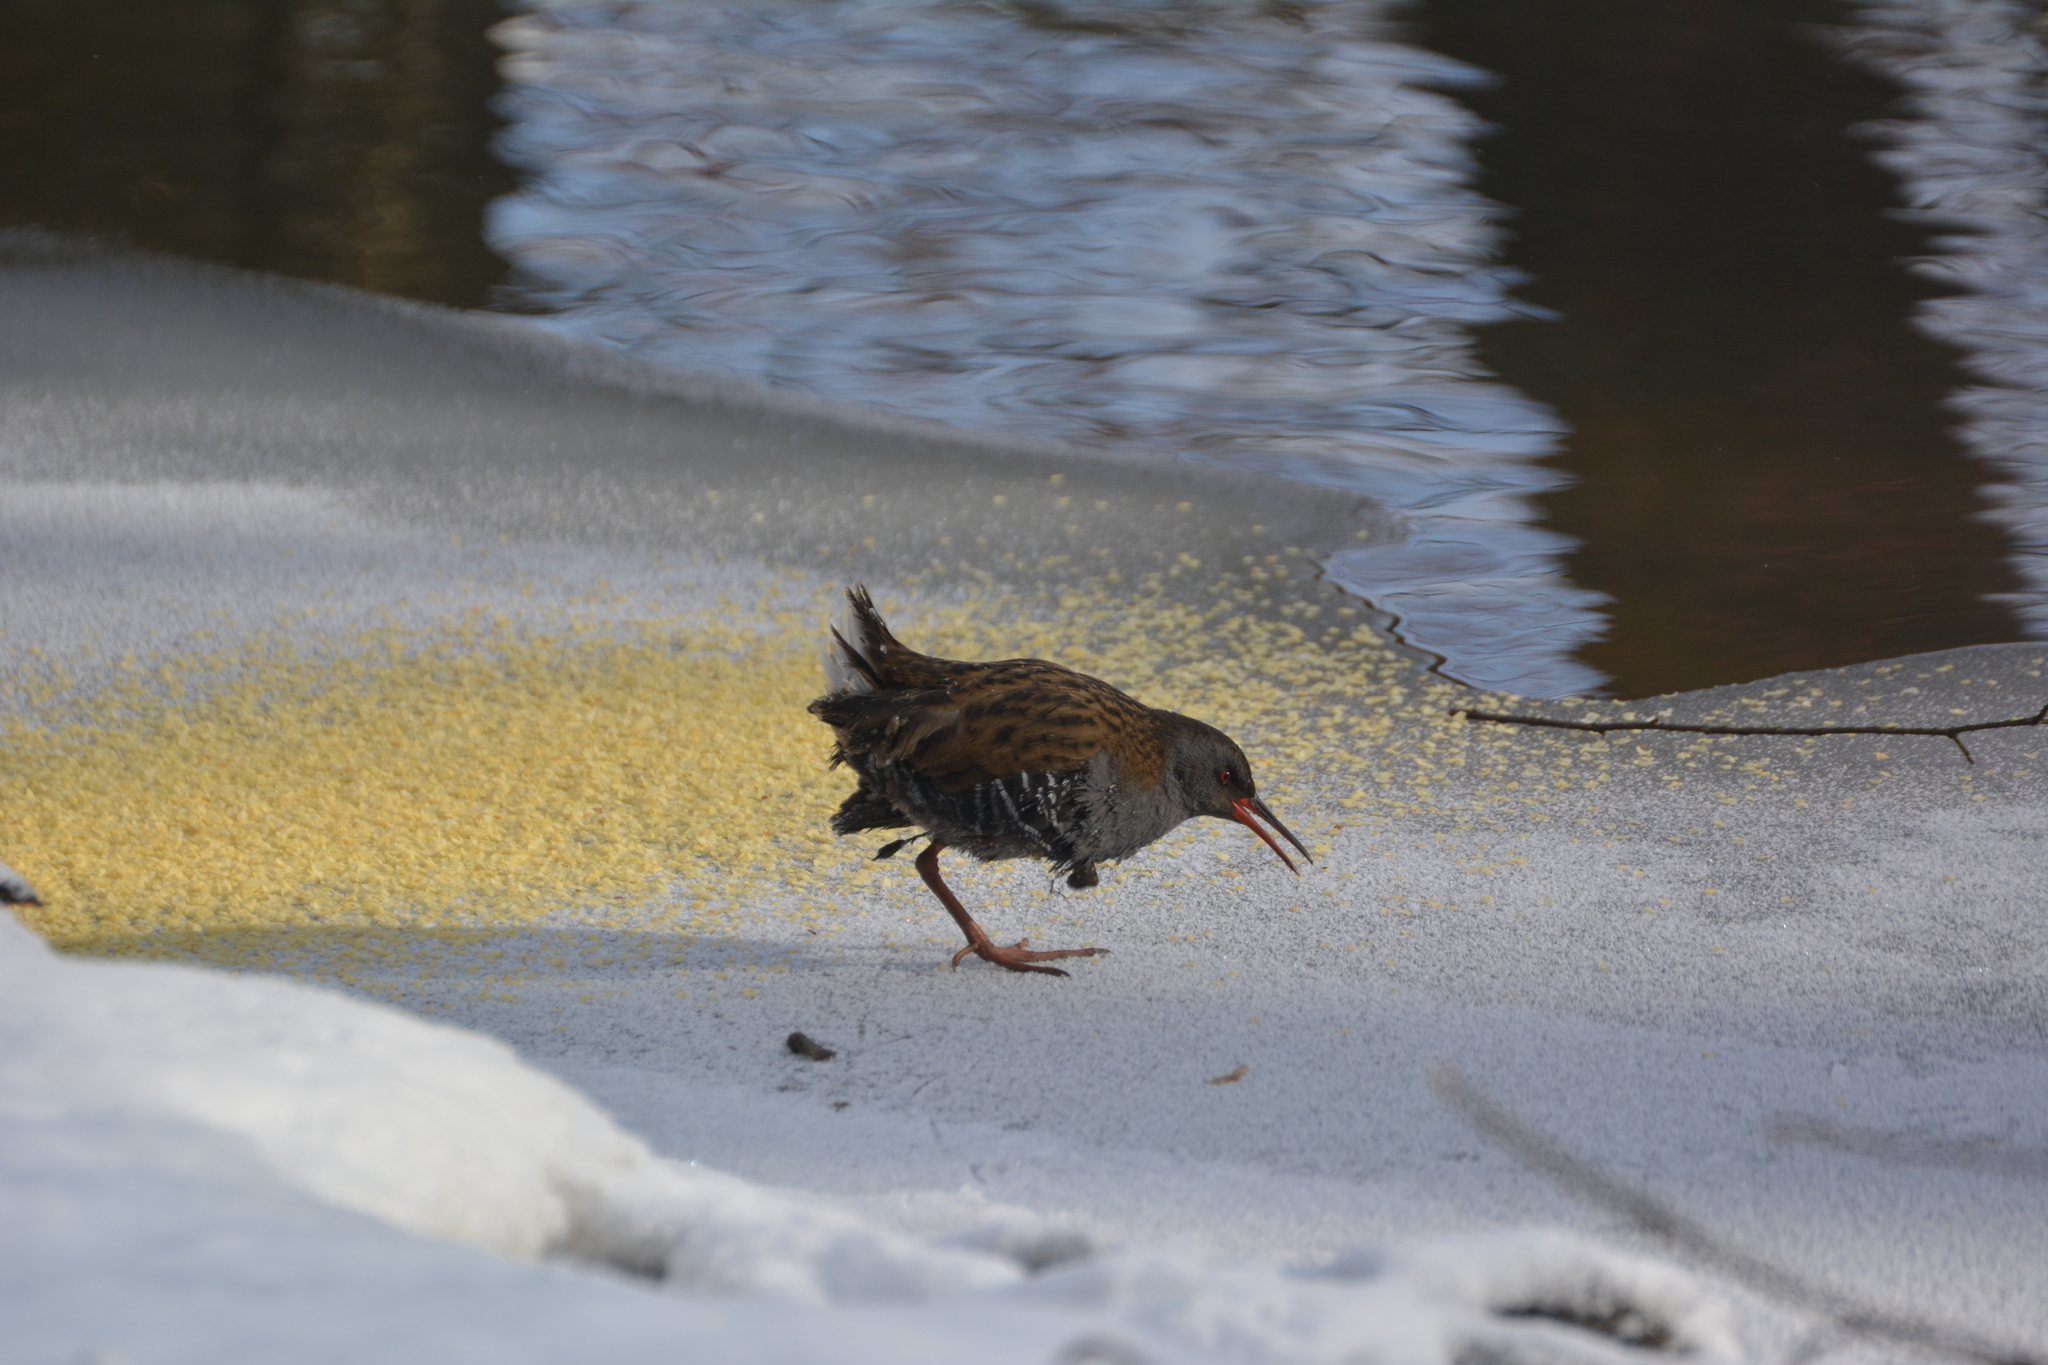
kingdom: Animalia
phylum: Chordata
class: Aves
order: Gruiformes
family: Rallidae
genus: Rallus
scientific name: Rallus aquaticus
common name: Water rail
